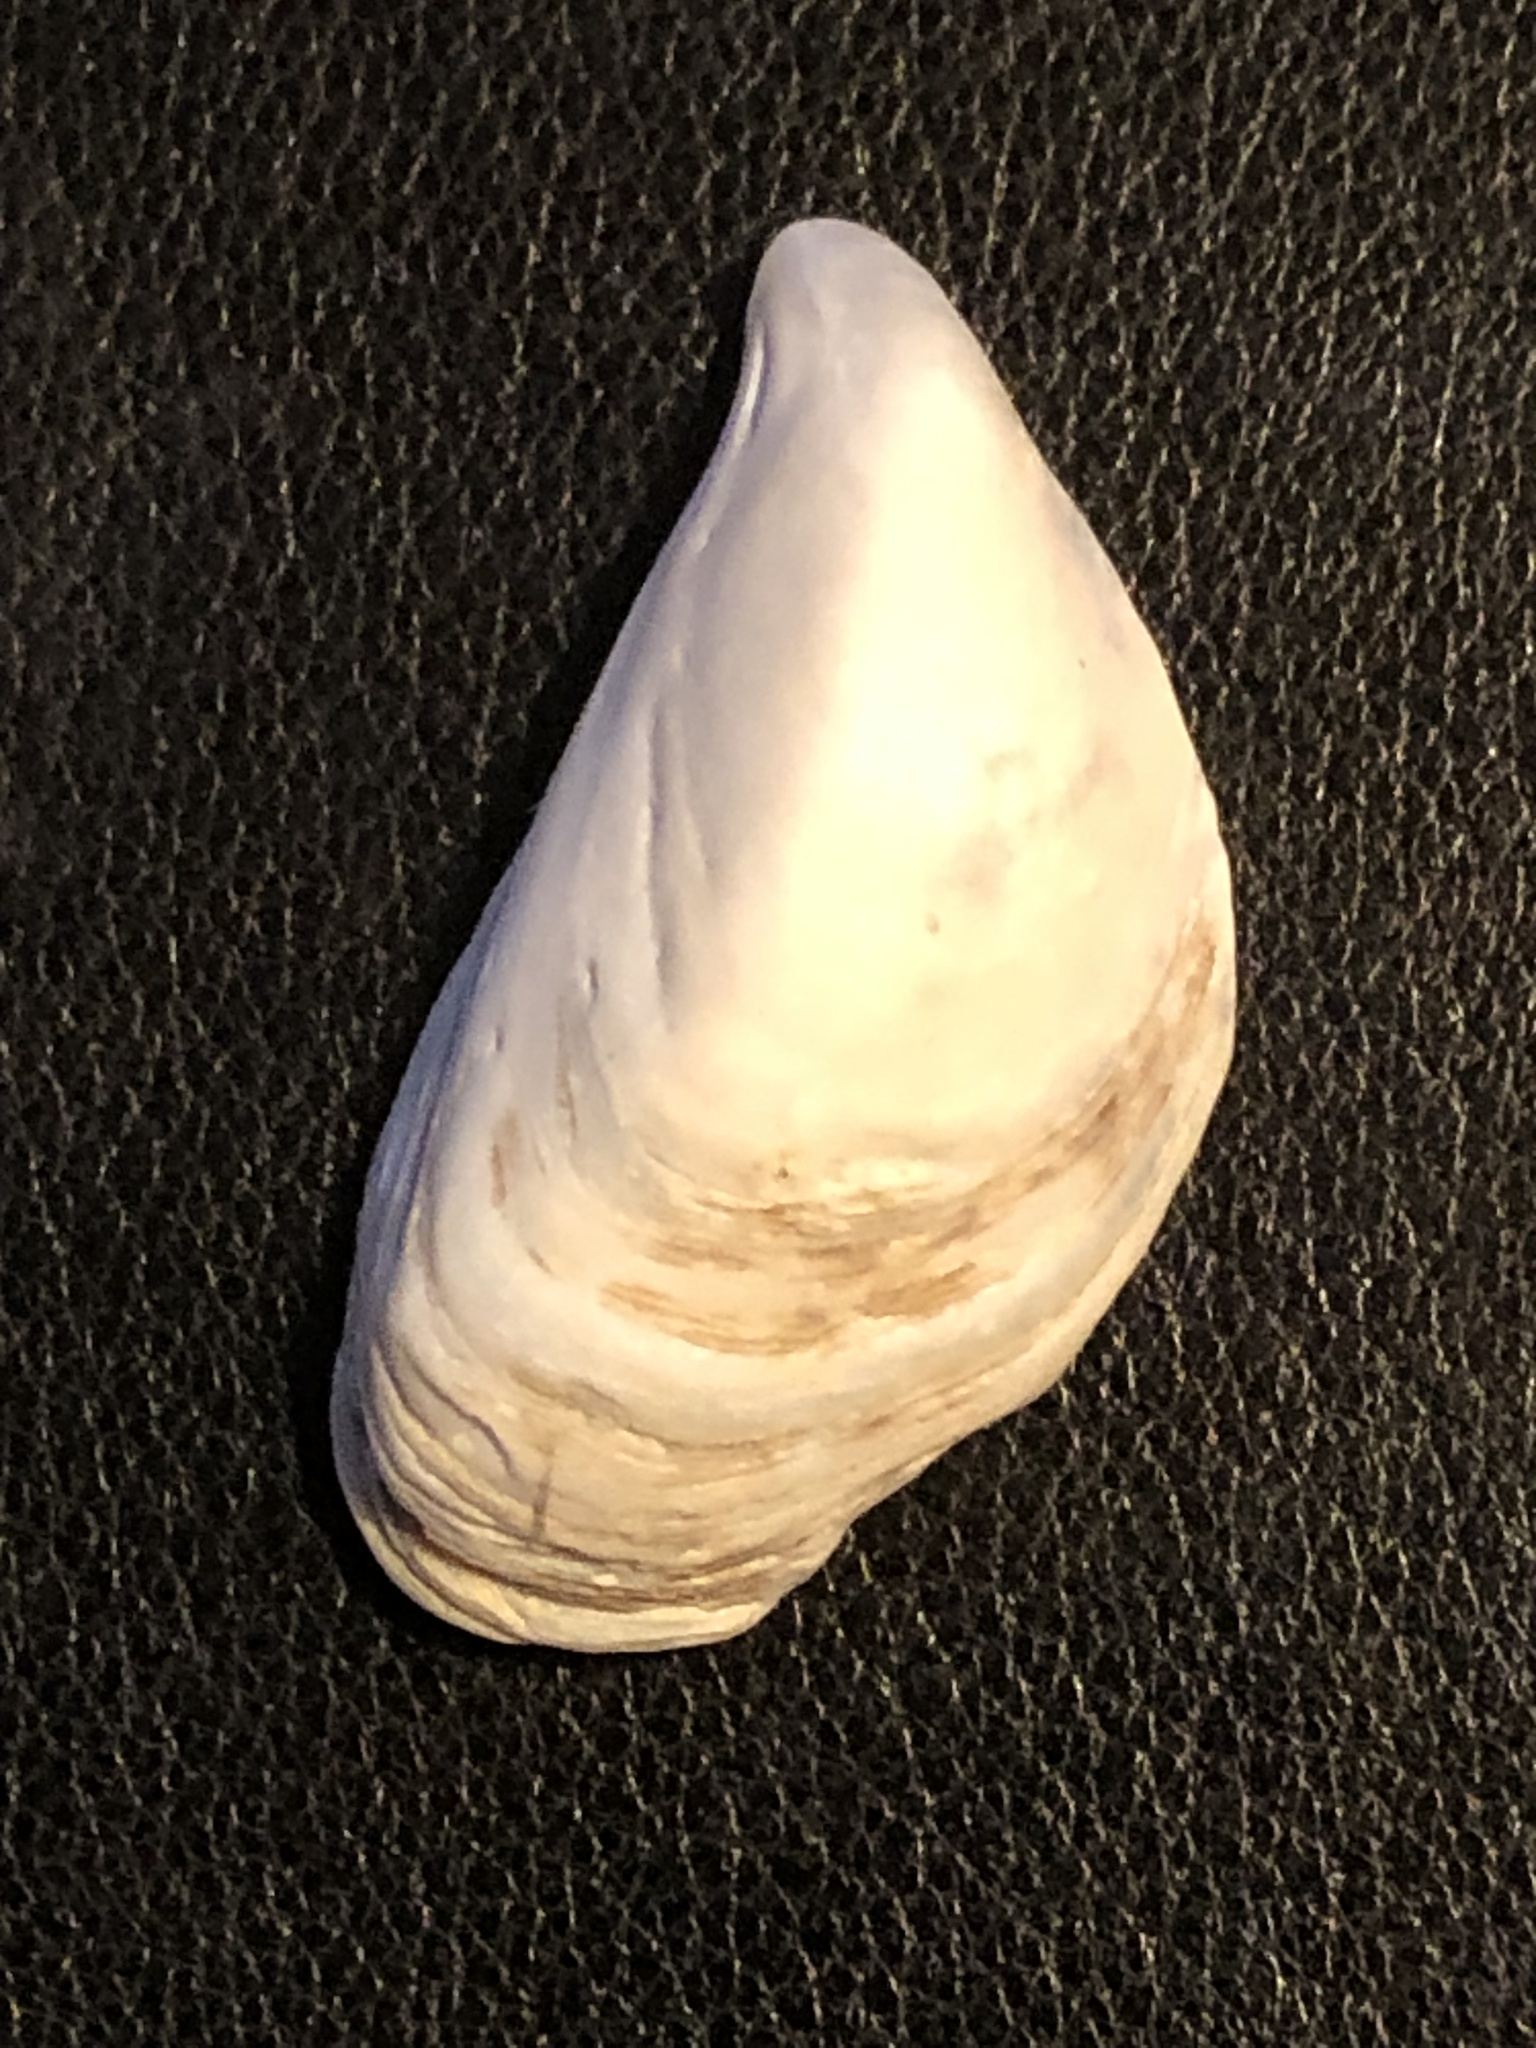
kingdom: Animalia
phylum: Mollusca
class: Bivalvia
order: Myida
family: Dreissenidae
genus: Dreissena
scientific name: Dreissena bugensis
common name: Quagga mussel
